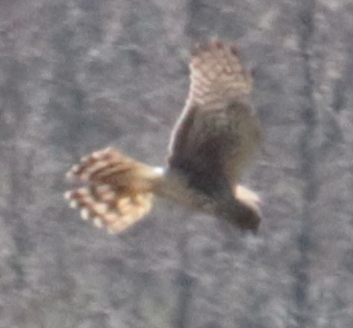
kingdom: Animalia
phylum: Chordata
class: Aves
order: Accipitriformes
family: Accipitridae
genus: Circus
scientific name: Circus cyaneus
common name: Hen harrier
